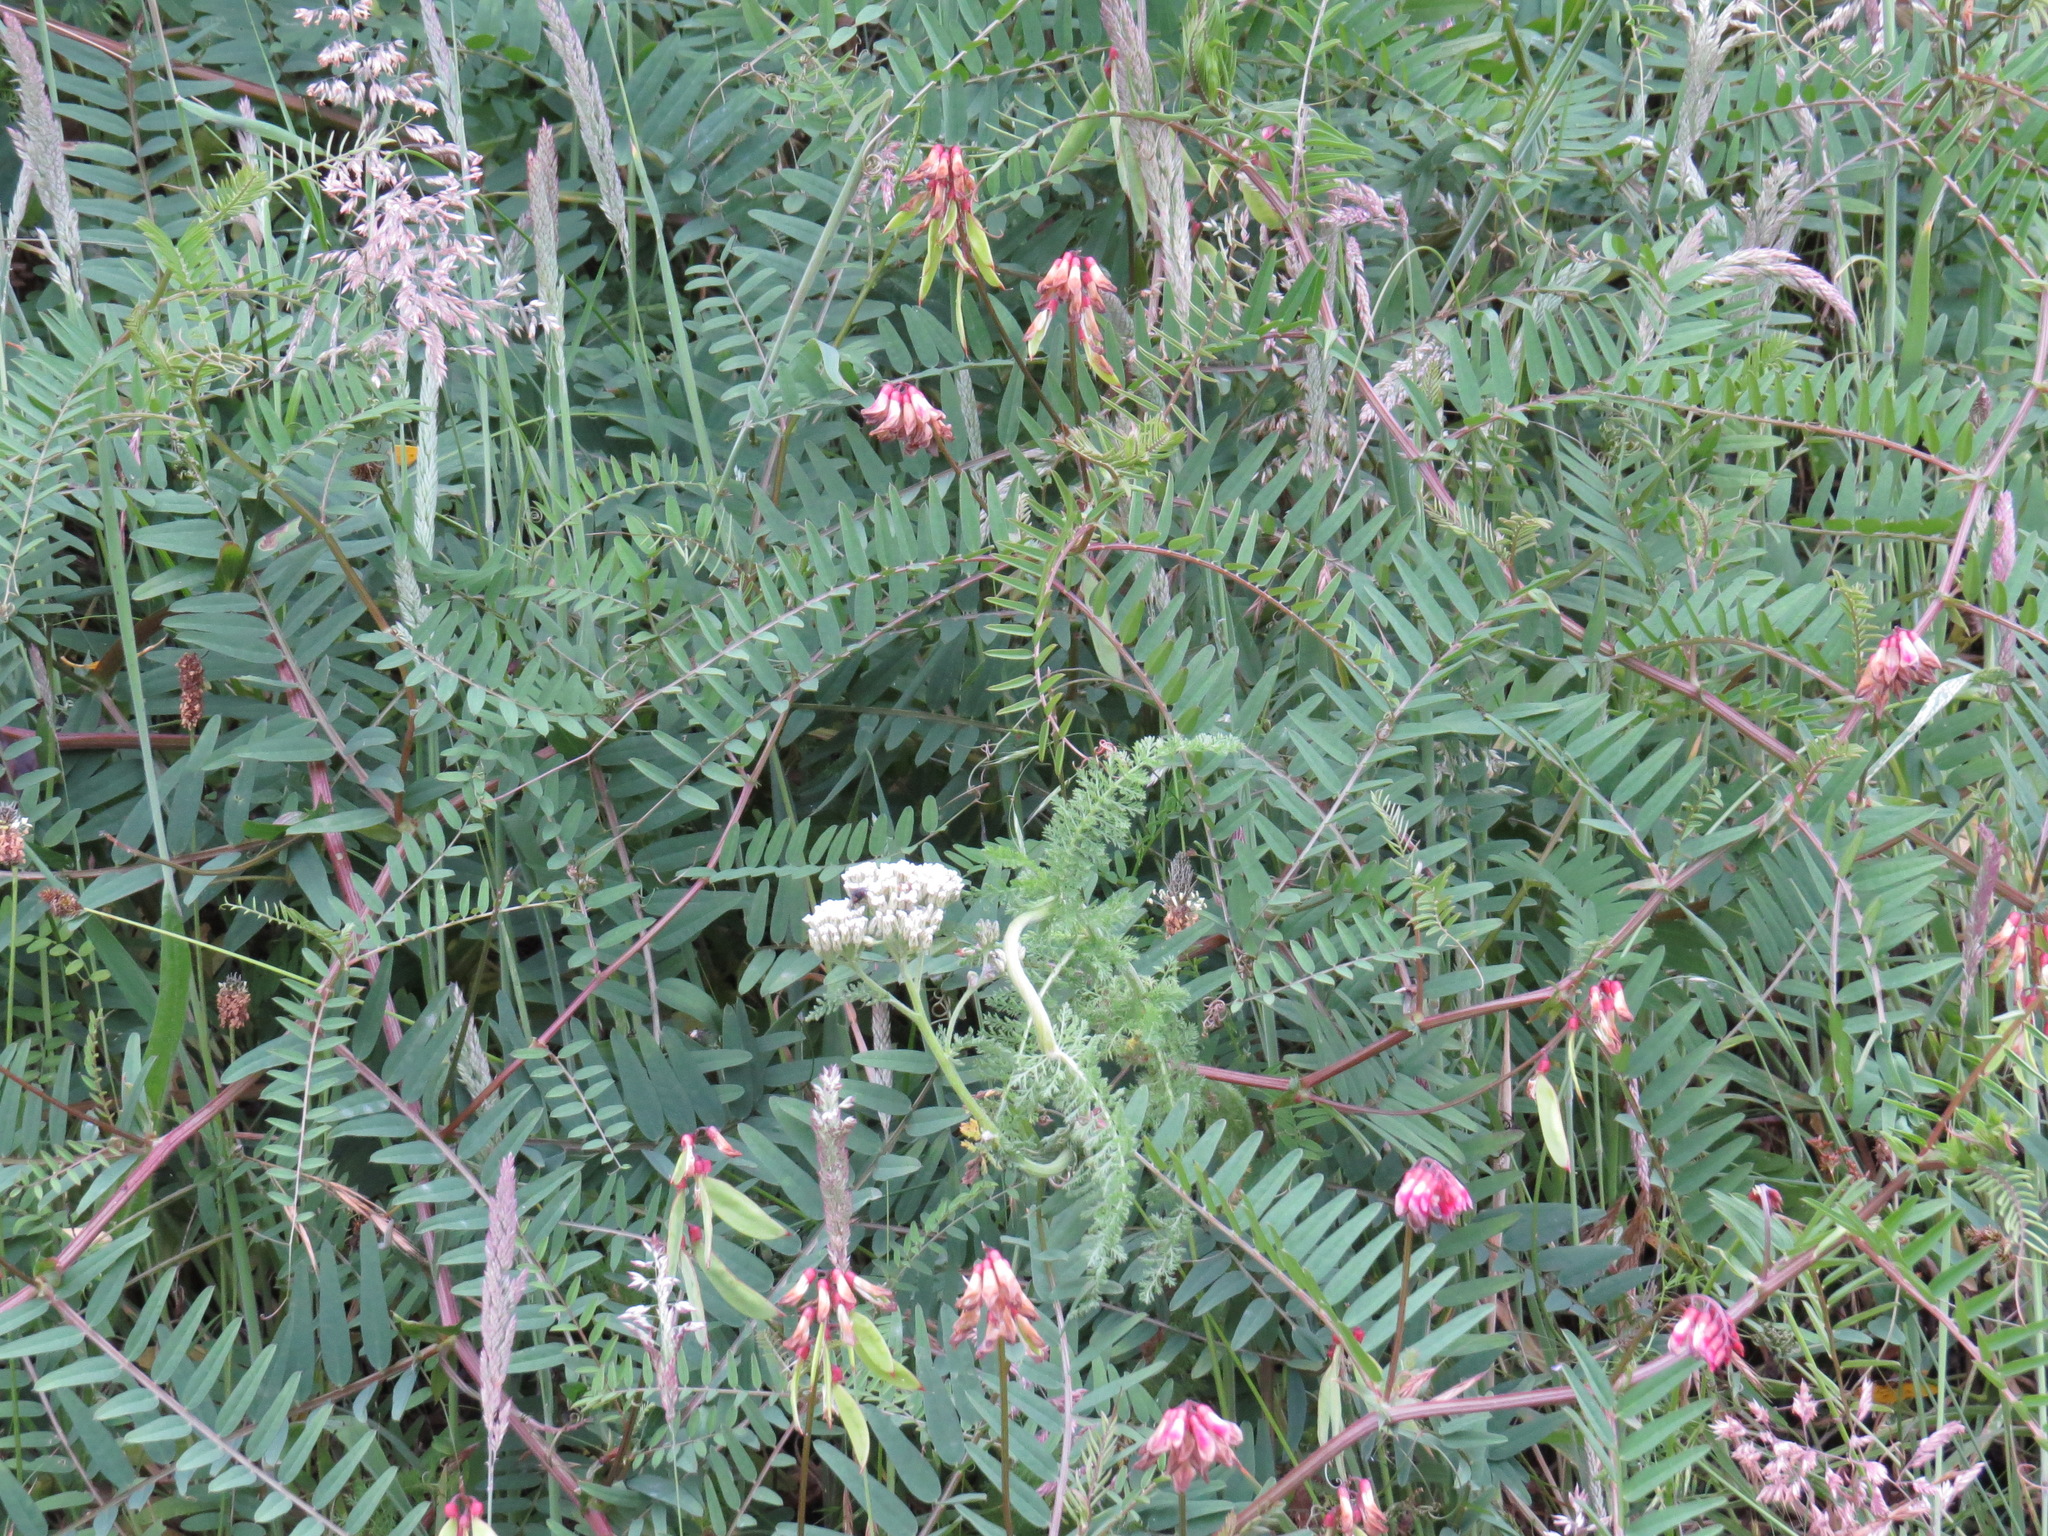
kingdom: Plantae
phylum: Tracheophyta
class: Magnoliopsida
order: Fabales
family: Fabaceae
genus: Vicia
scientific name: Vicia
